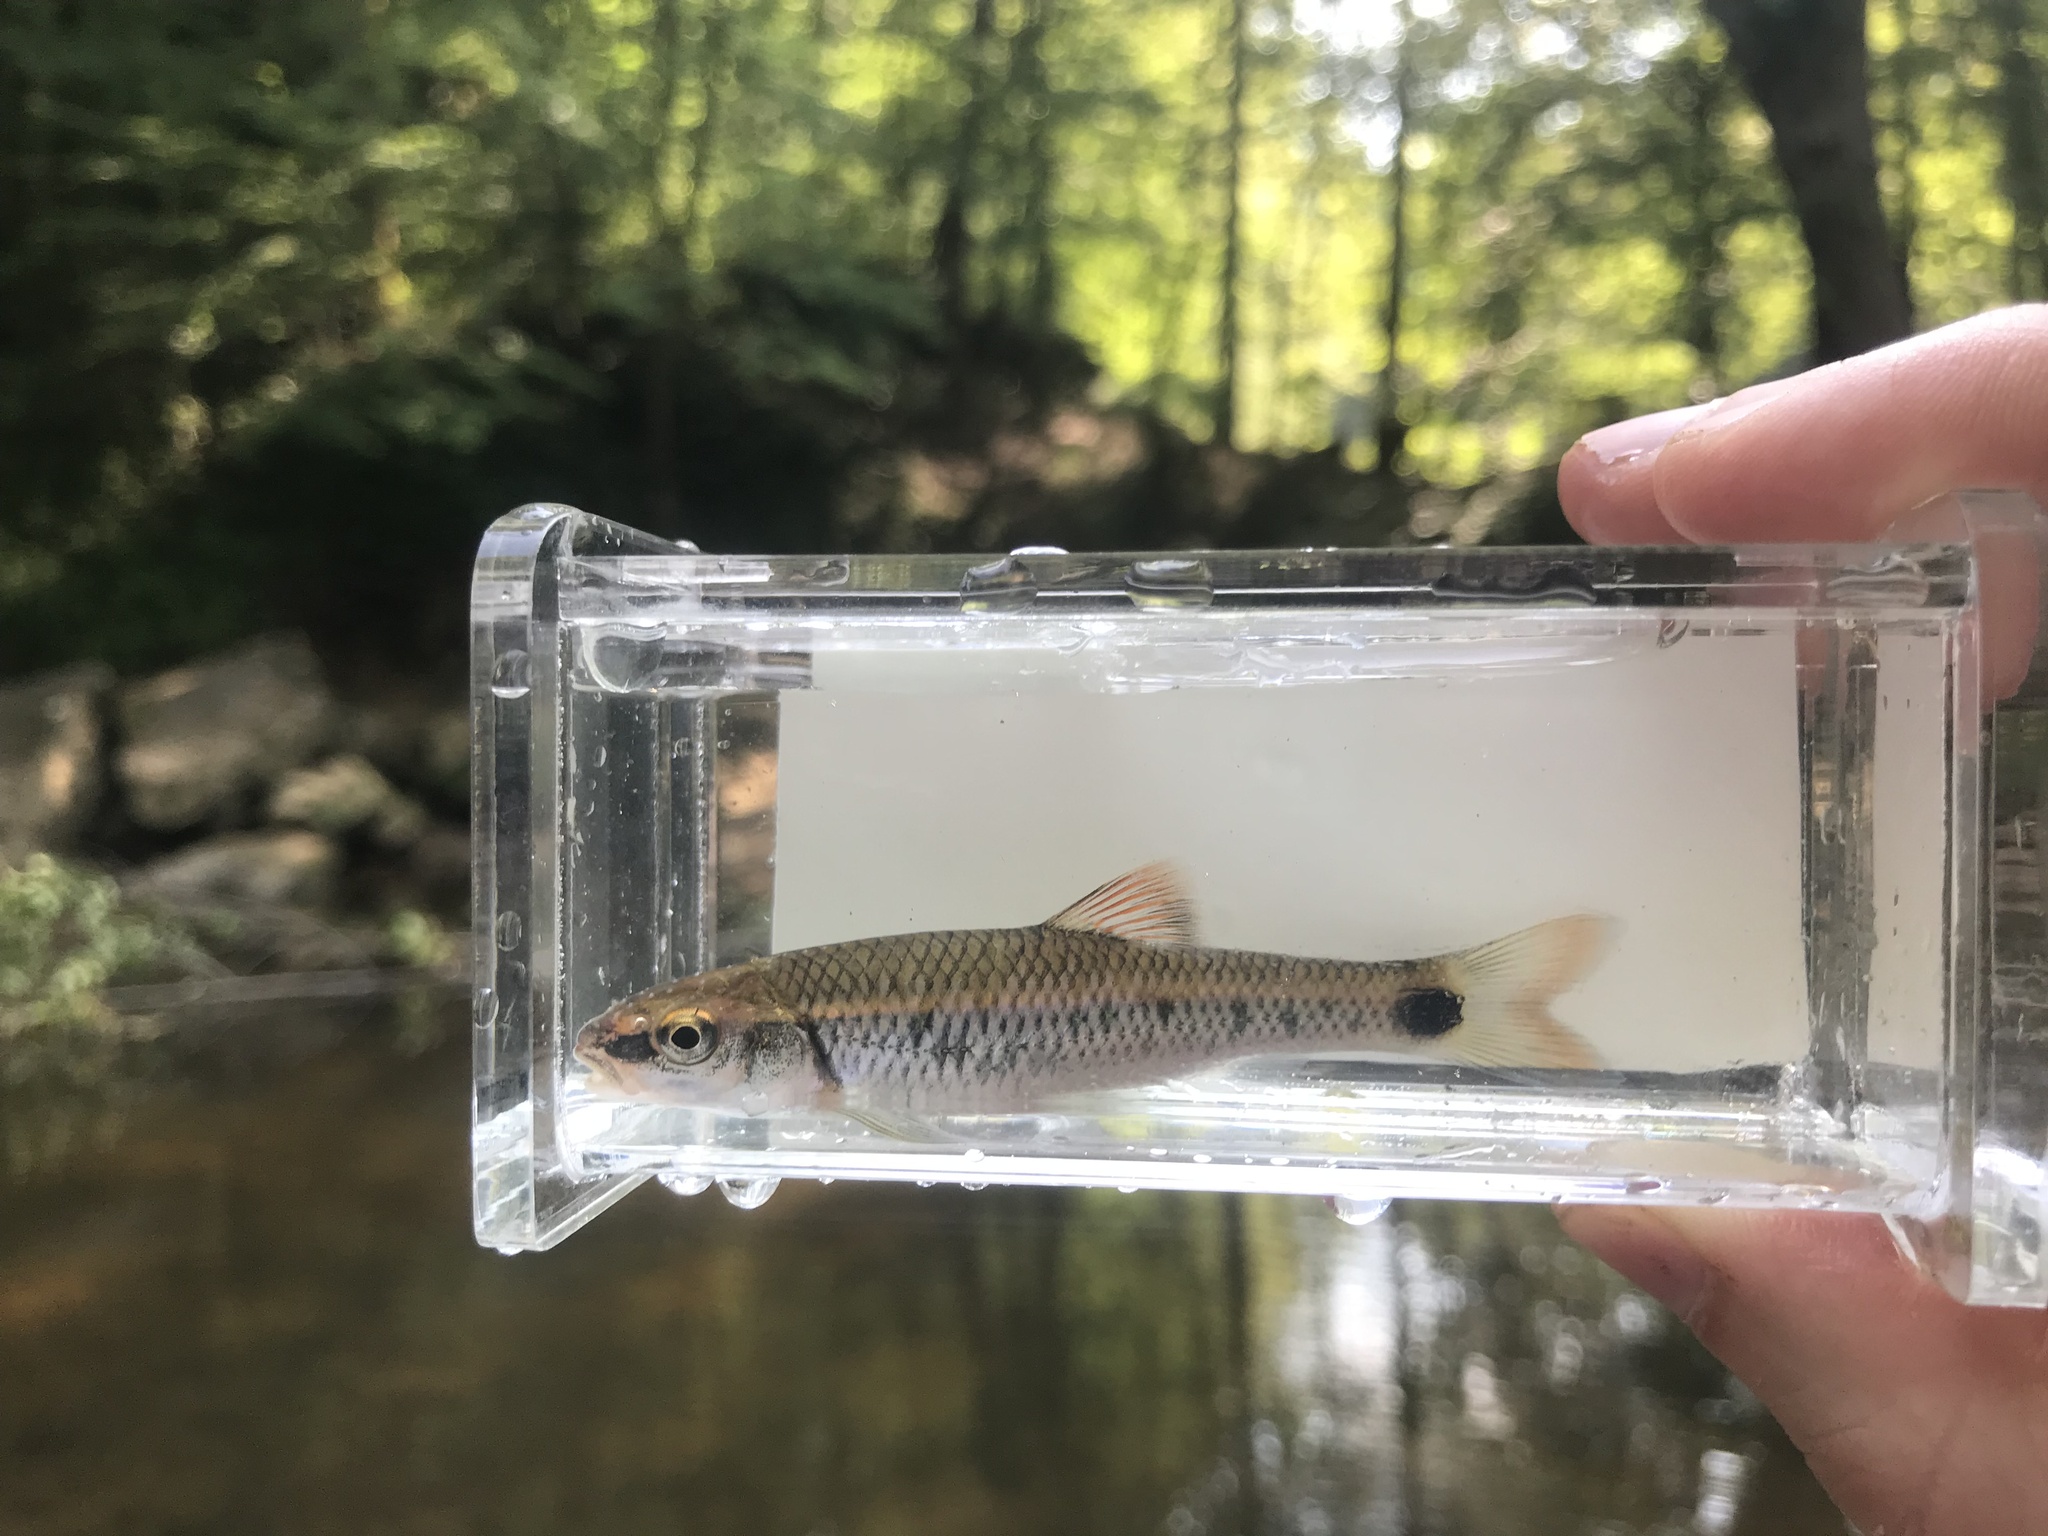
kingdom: Animalia
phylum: Chordata
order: Cypriniformes
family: Cyprinidae
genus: Cyprinella
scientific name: Cyprinella callistia
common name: Alabama shiner
